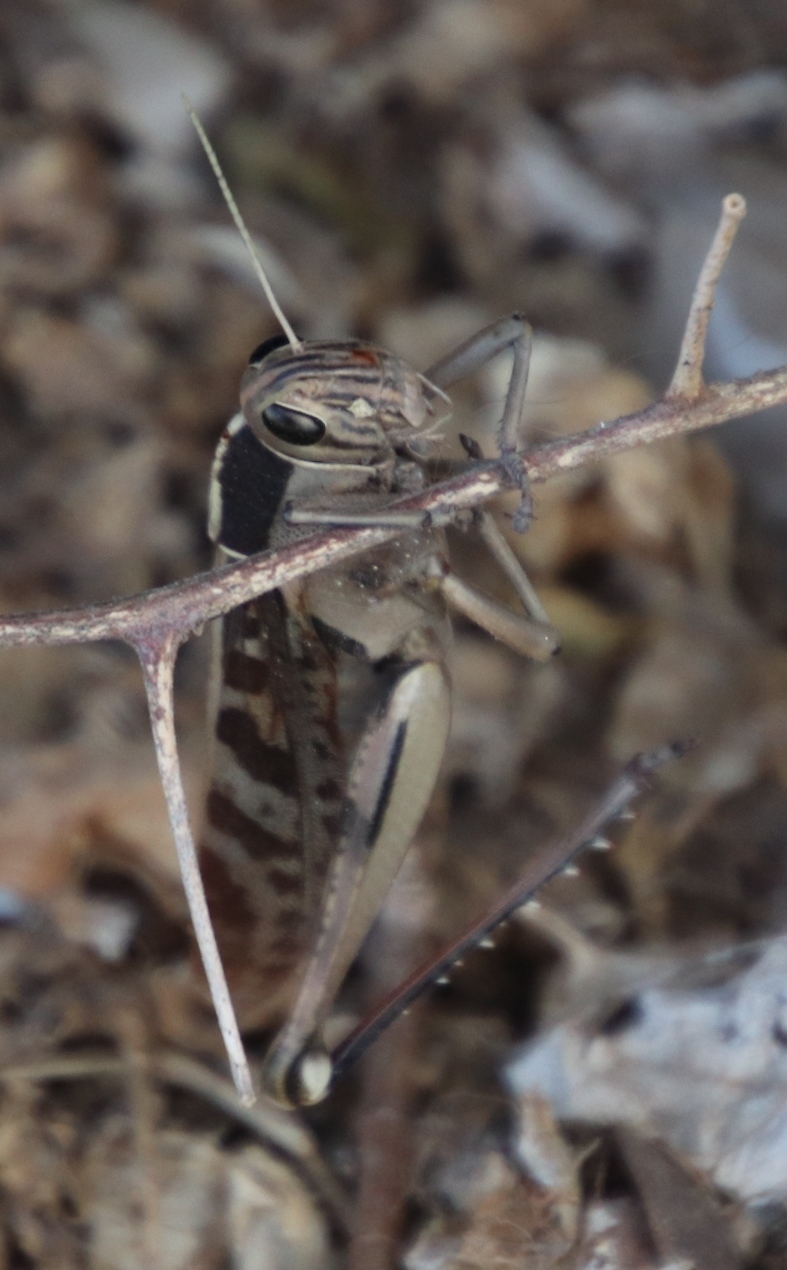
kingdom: Animalia
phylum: Arthropoda
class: Insecta
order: Orthoptera
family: Acrididae
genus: Acanthacris
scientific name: Acanthacris ruficornis
